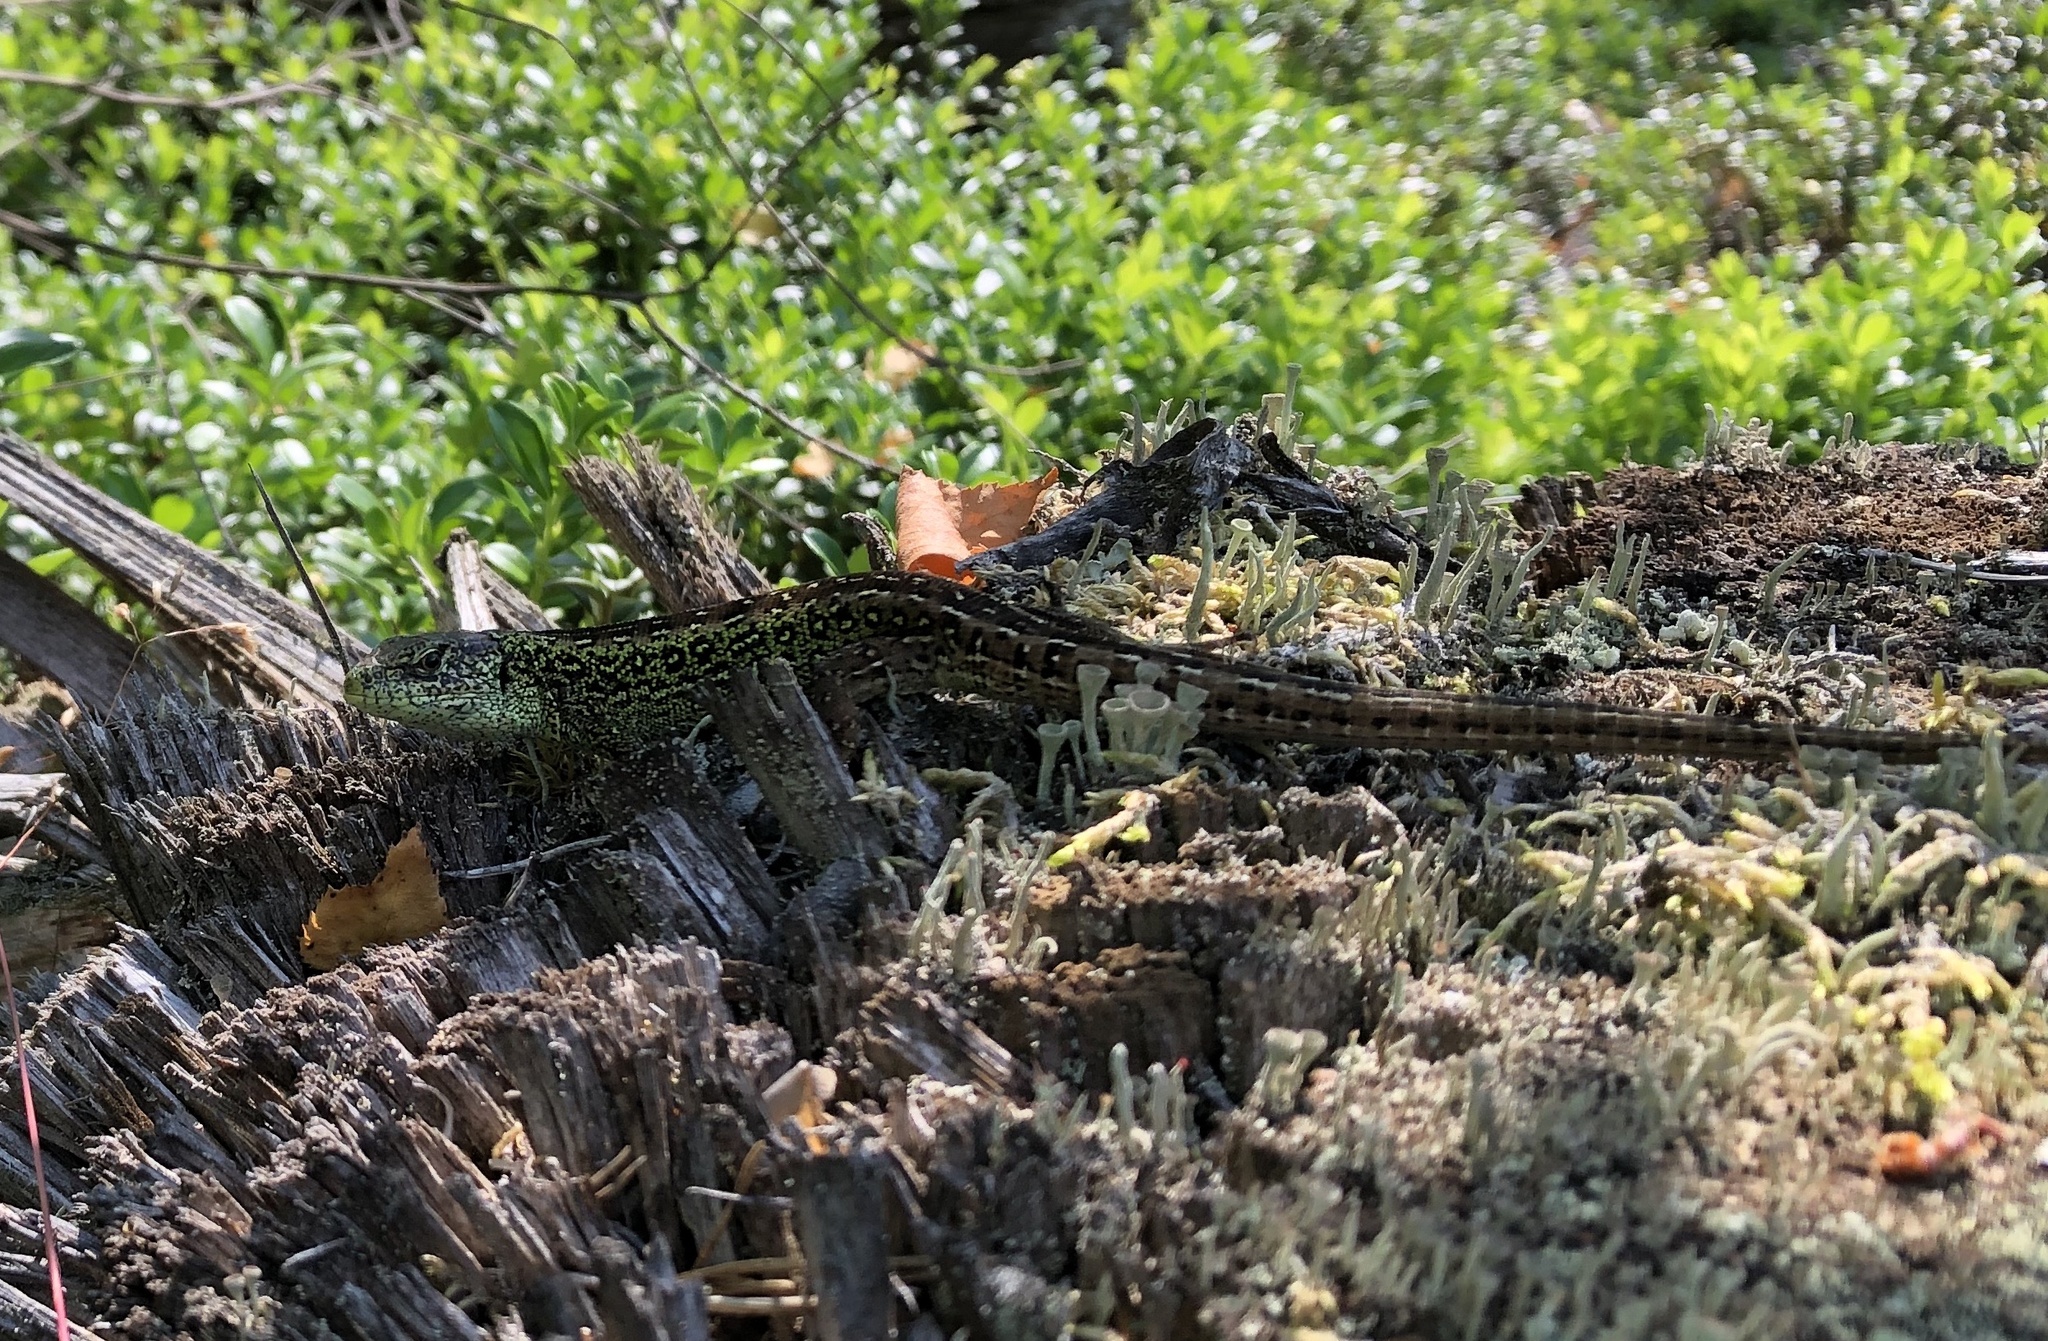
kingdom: Animalia
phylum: Chordata
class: Squamata
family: Lacertidae
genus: Lacerta
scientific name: Lacerta agilis
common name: Sand lizard
